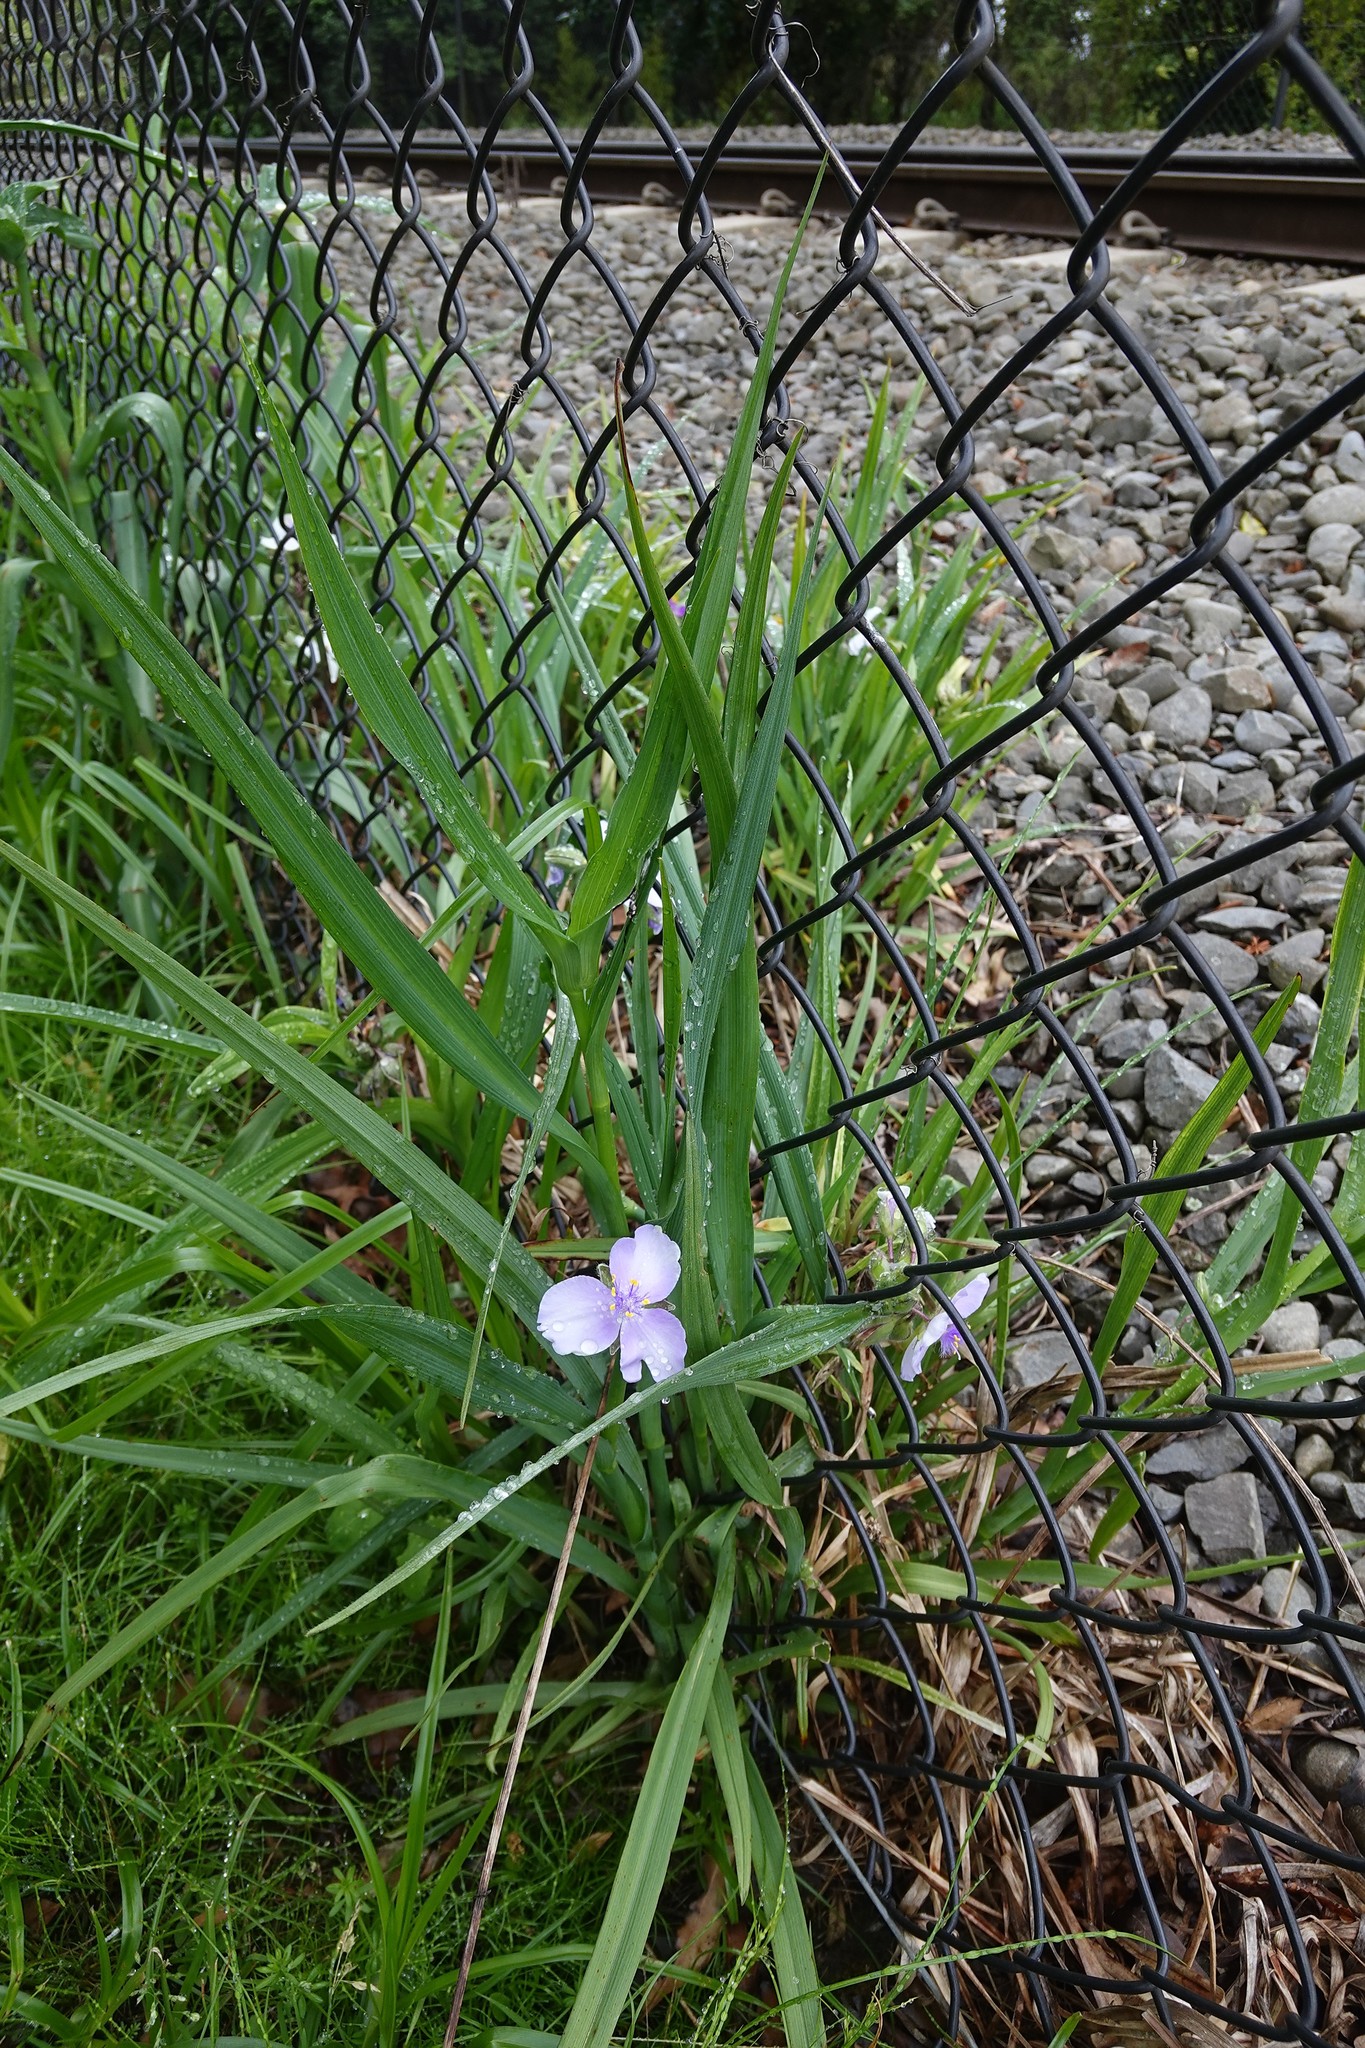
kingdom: Plantae
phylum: Tracheophyta
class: Liliopsida
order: Commelinales
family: Commelinaceae
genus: Tradescantia
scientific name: Tradescantia virginiana
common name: Spiderwort
